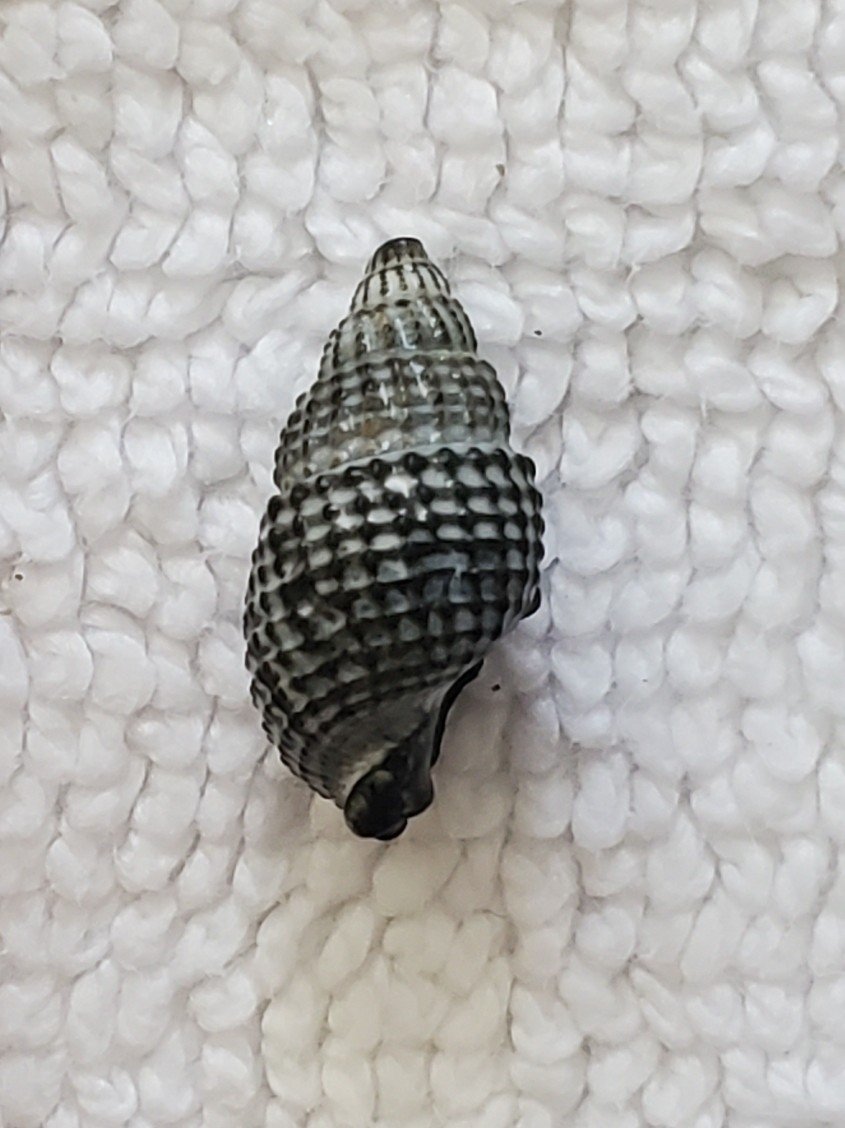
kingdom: Animalia
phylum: Mollusca
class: Gastropoda
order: Neogastropoda
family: Nassariidae
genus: Ilyanassa
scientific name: Ilyanassa trivittata
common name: Three-line mudsnail
